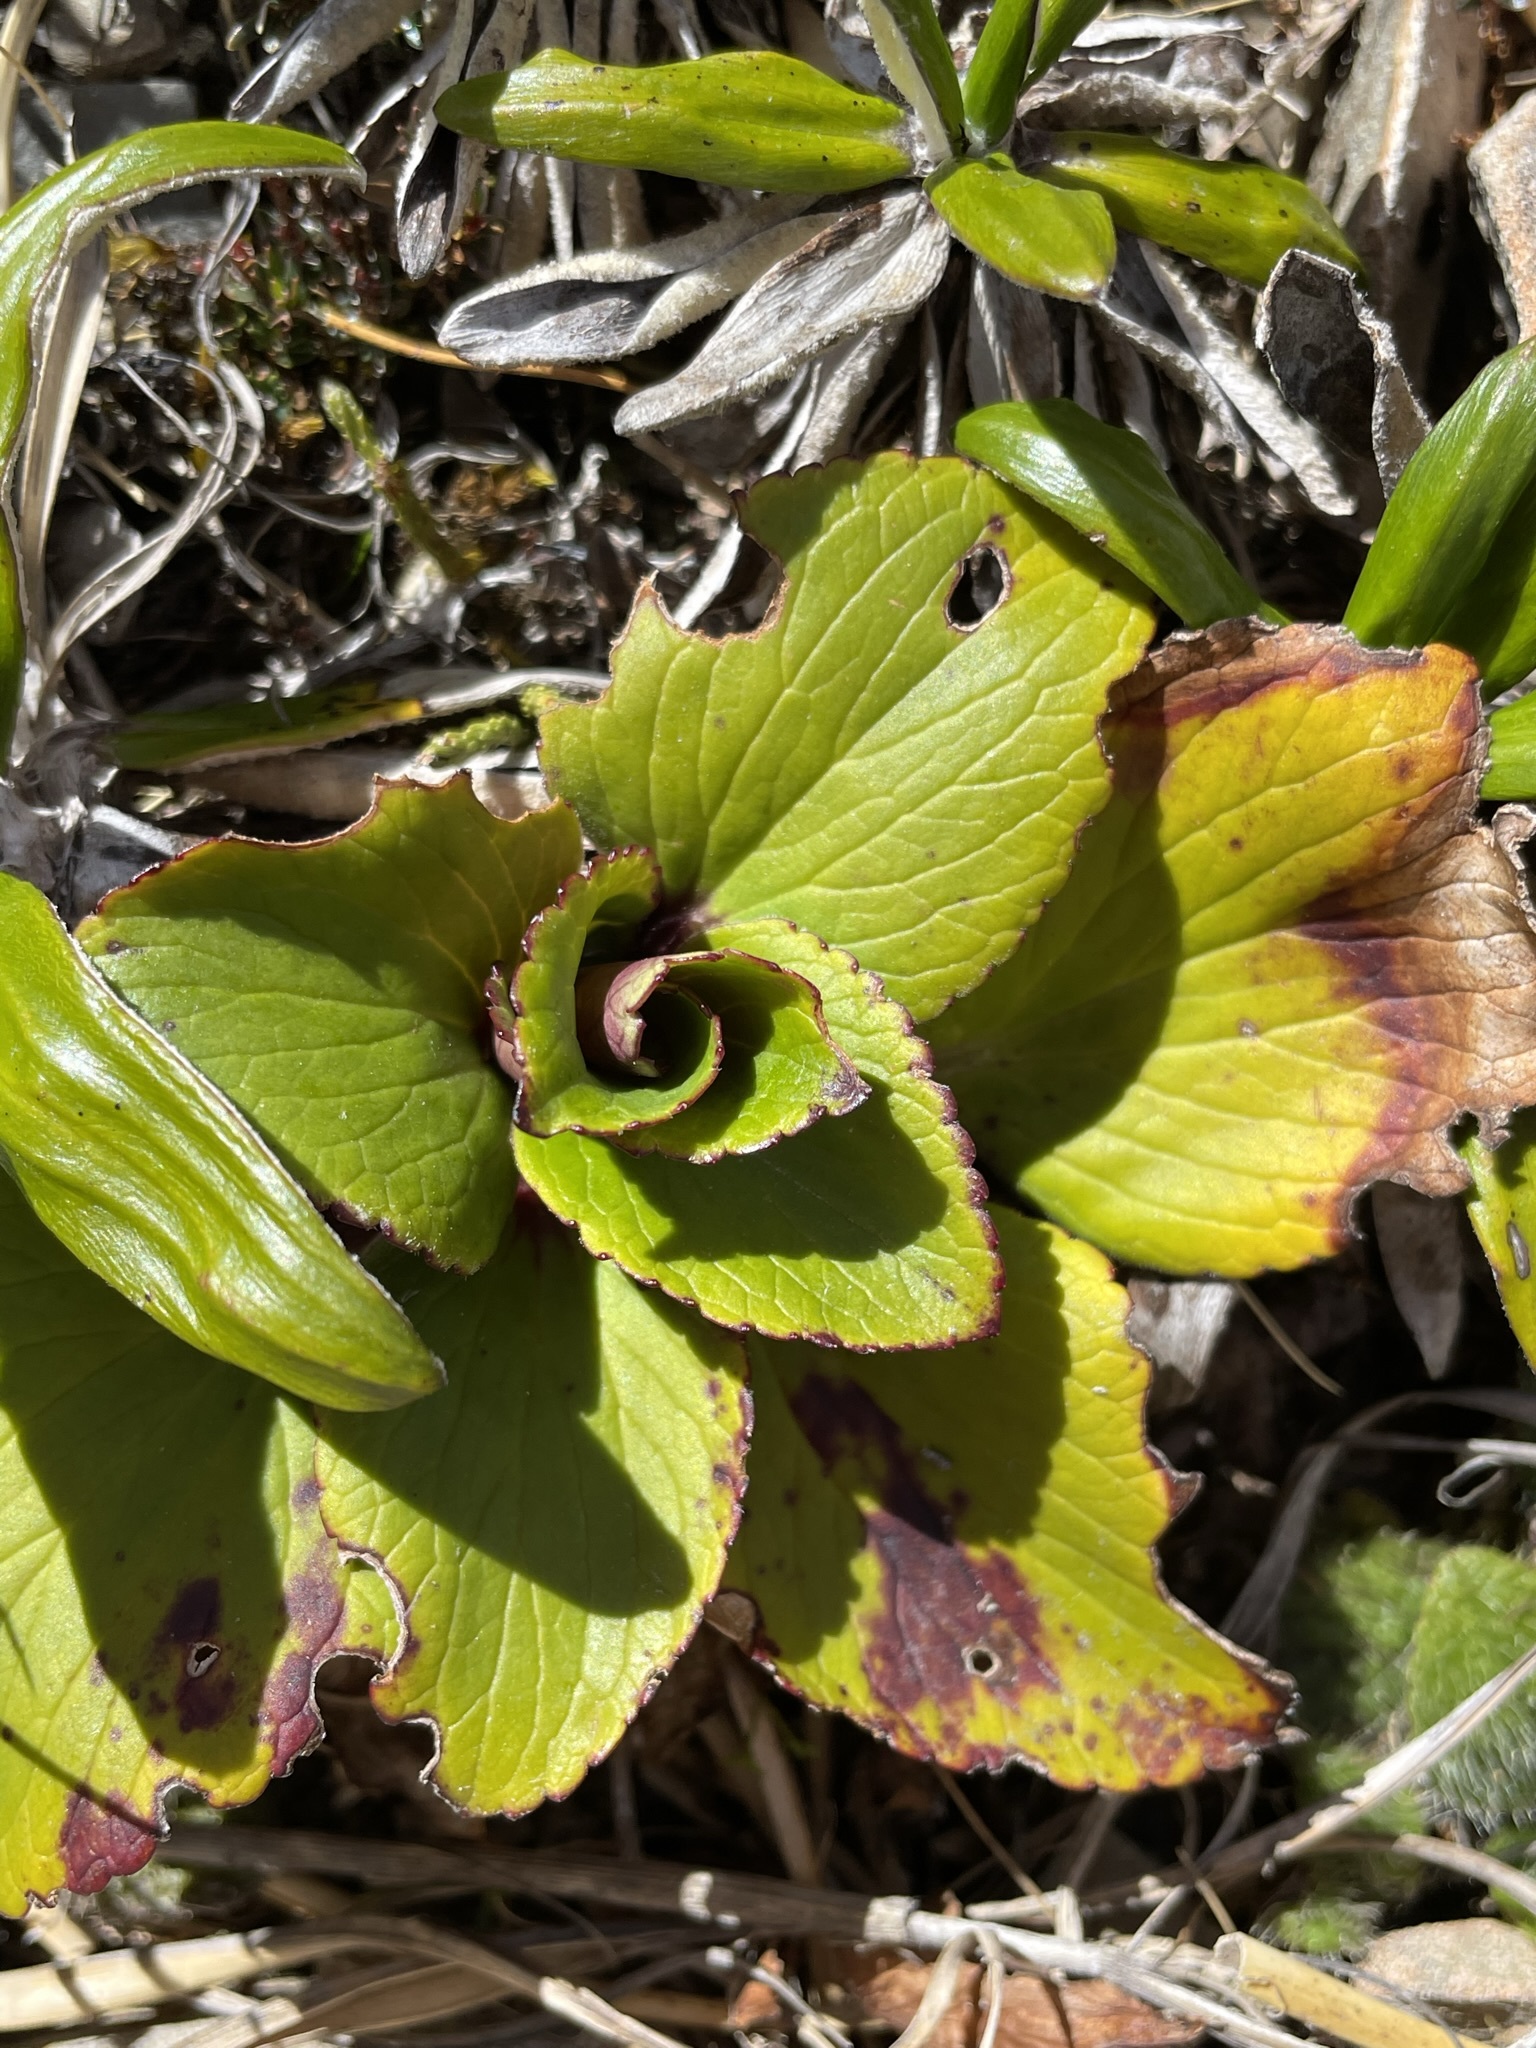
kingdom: Plantae
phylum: Tracheophyta
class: Magnoliopsida
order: Lamiales
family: Plantaginaceae
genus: Ourisia
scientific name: Ourisia calycina
